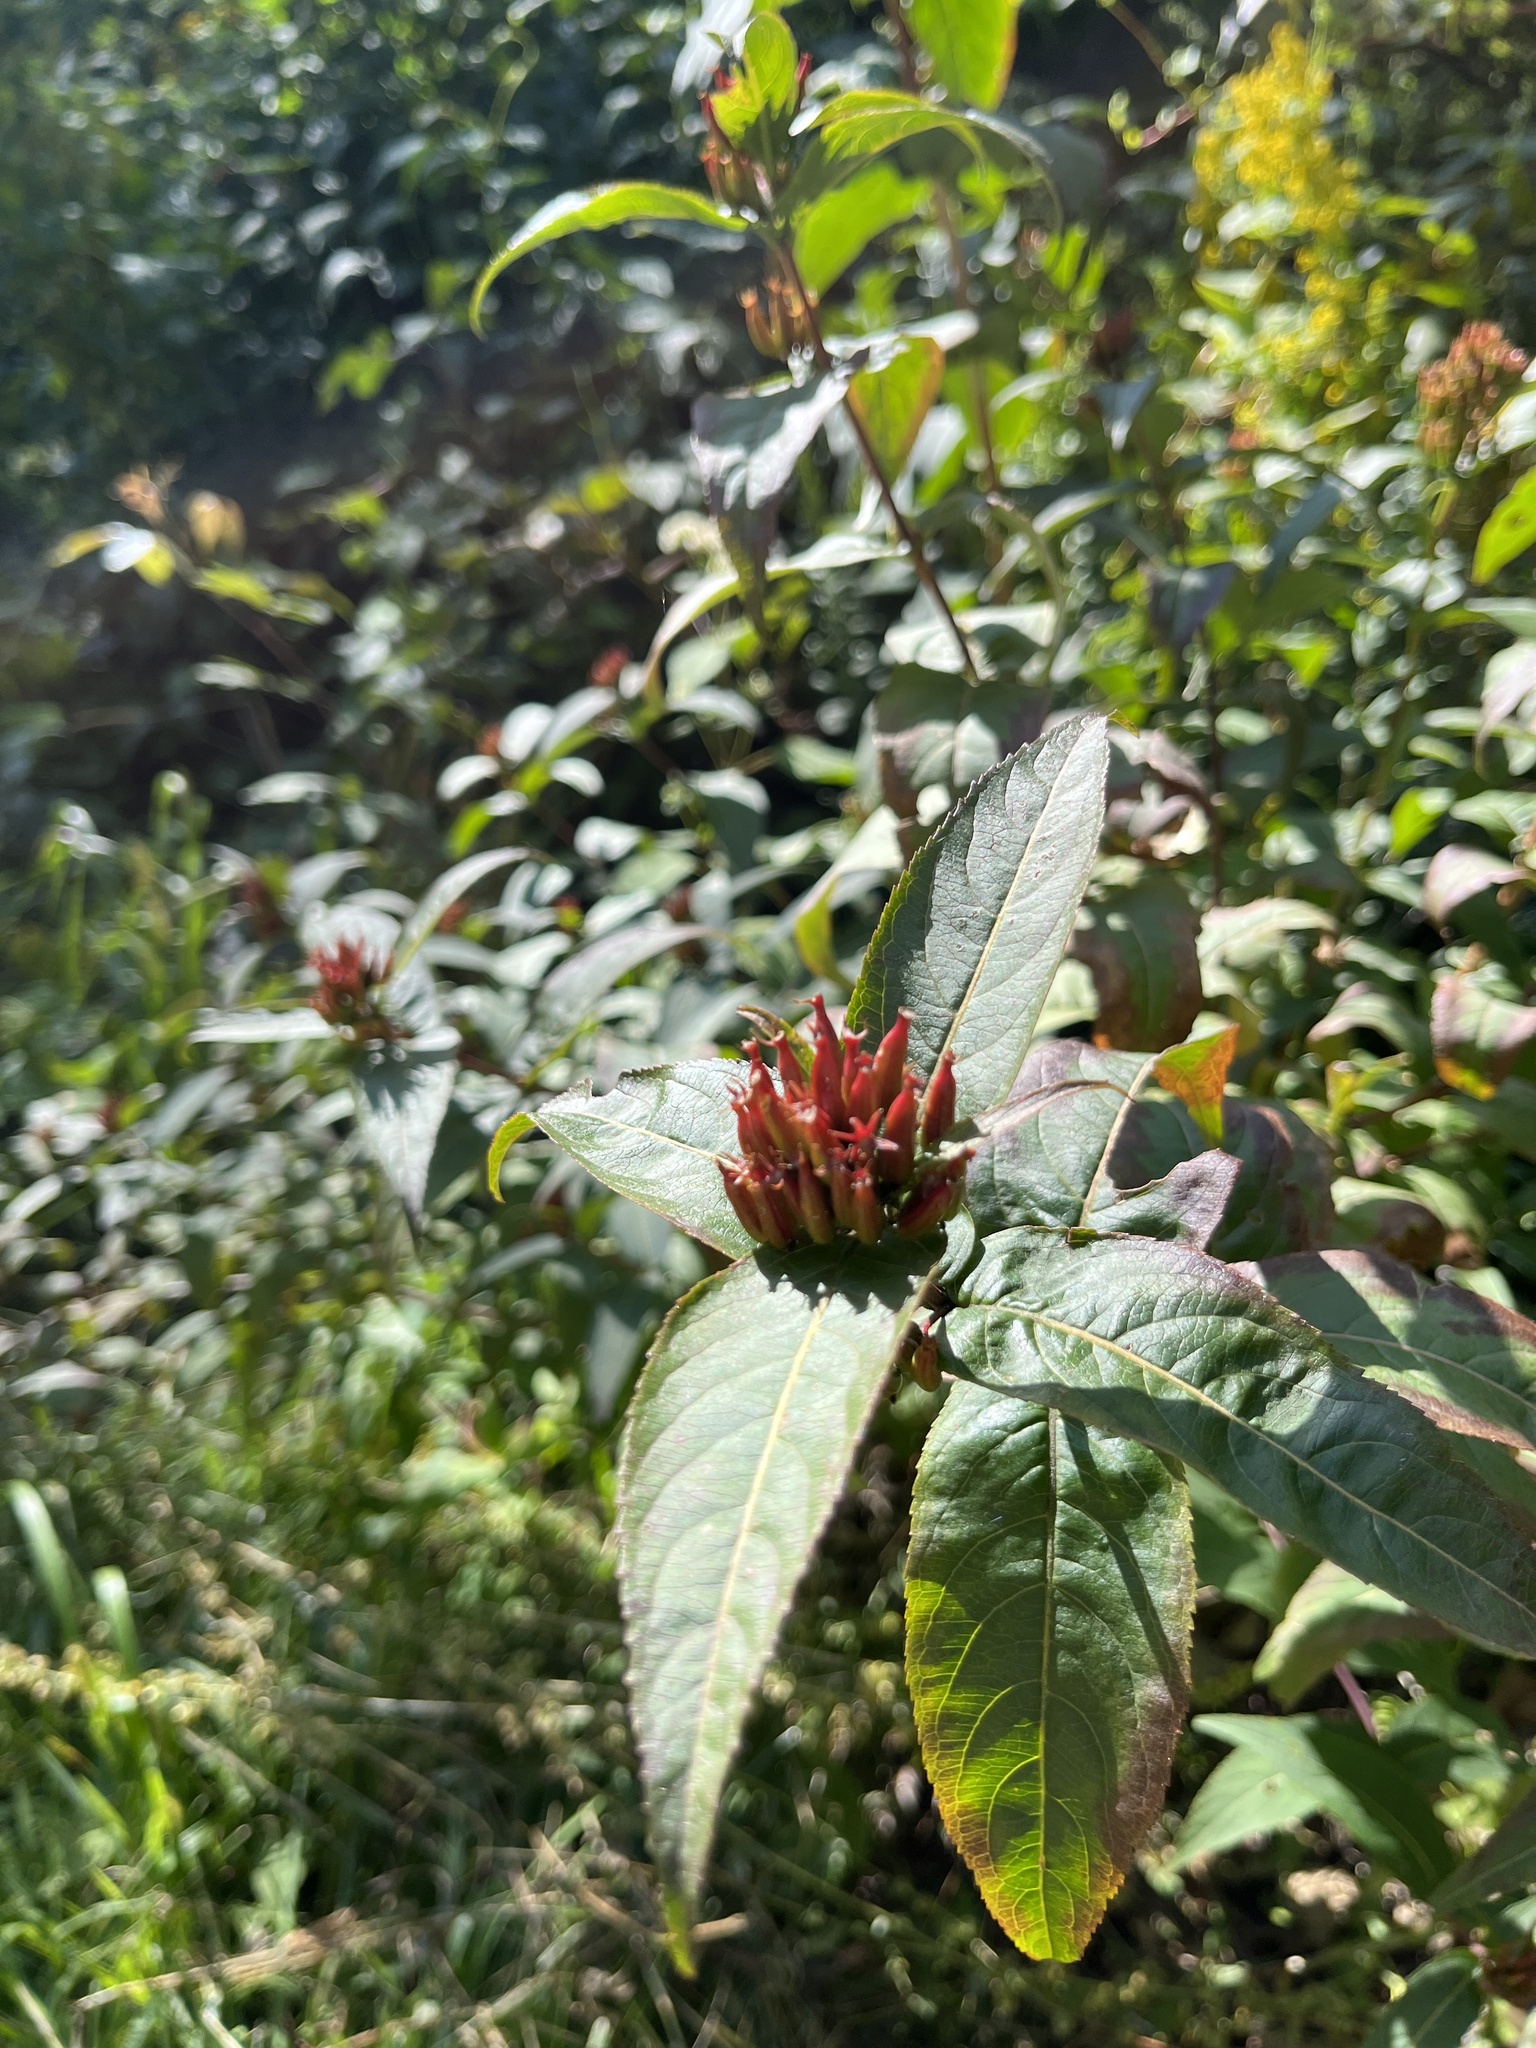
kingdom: Plantae
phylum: Tracheophyta
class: Magnoliopsida
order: Dipsacales
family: Caprifoliaceae
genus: Diervilla
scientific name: Diervilla sessilifolia
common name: Bush-honeysuckle
